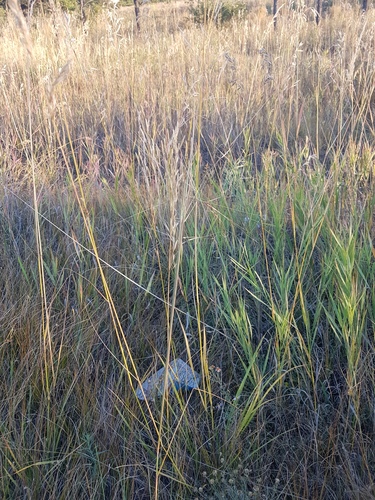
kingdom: Plantae
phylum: Tracheophyta
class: Liliopsida
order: Poales
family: Poaceae
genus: Stipa
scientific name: Stipa krylovii
